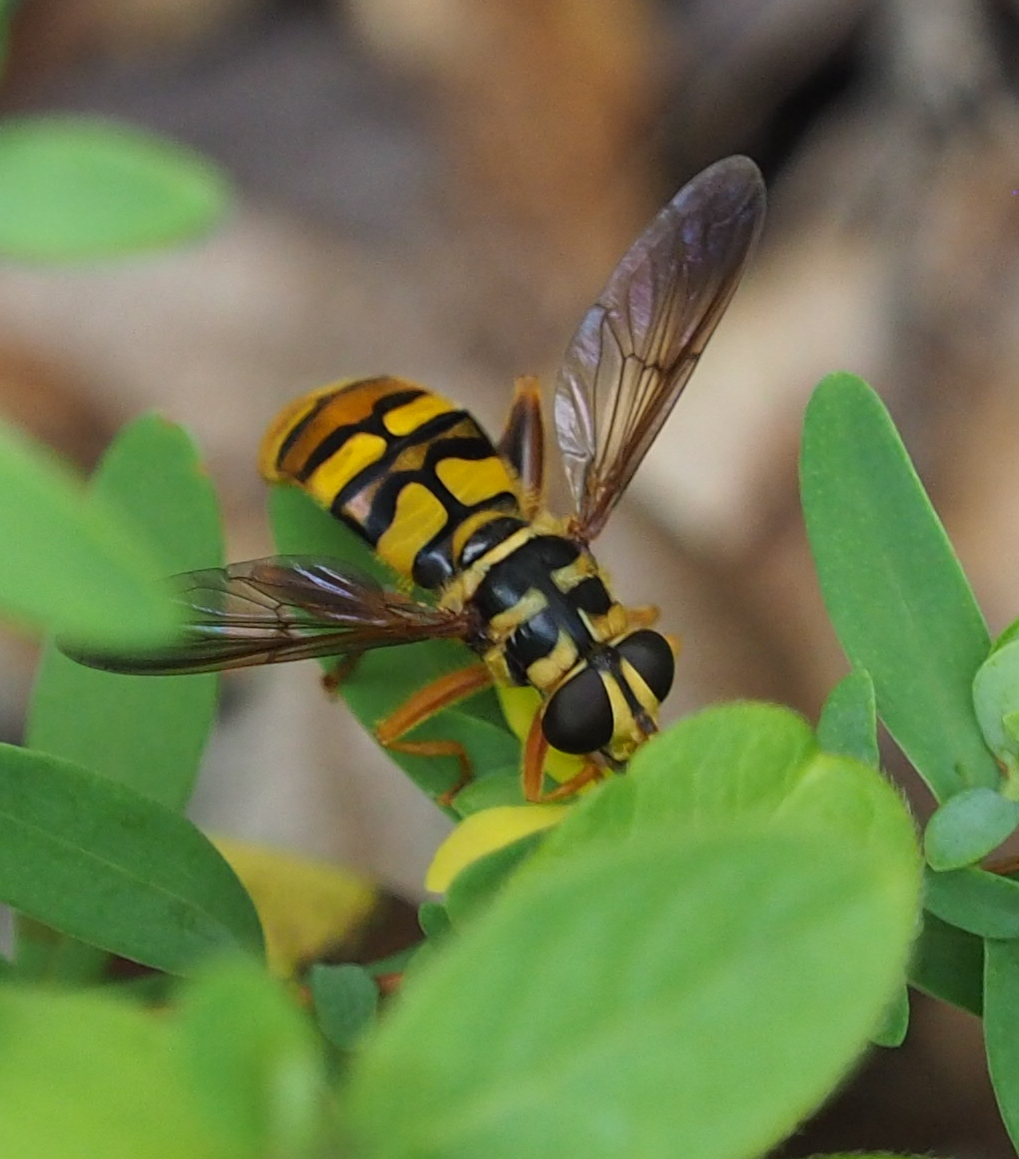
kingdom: Animalia
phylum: Arthropoda
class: Insecta
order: Diptera
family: Syrphidae
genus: Milesia
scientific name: Milesia virginiensis
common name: Virginia giant
